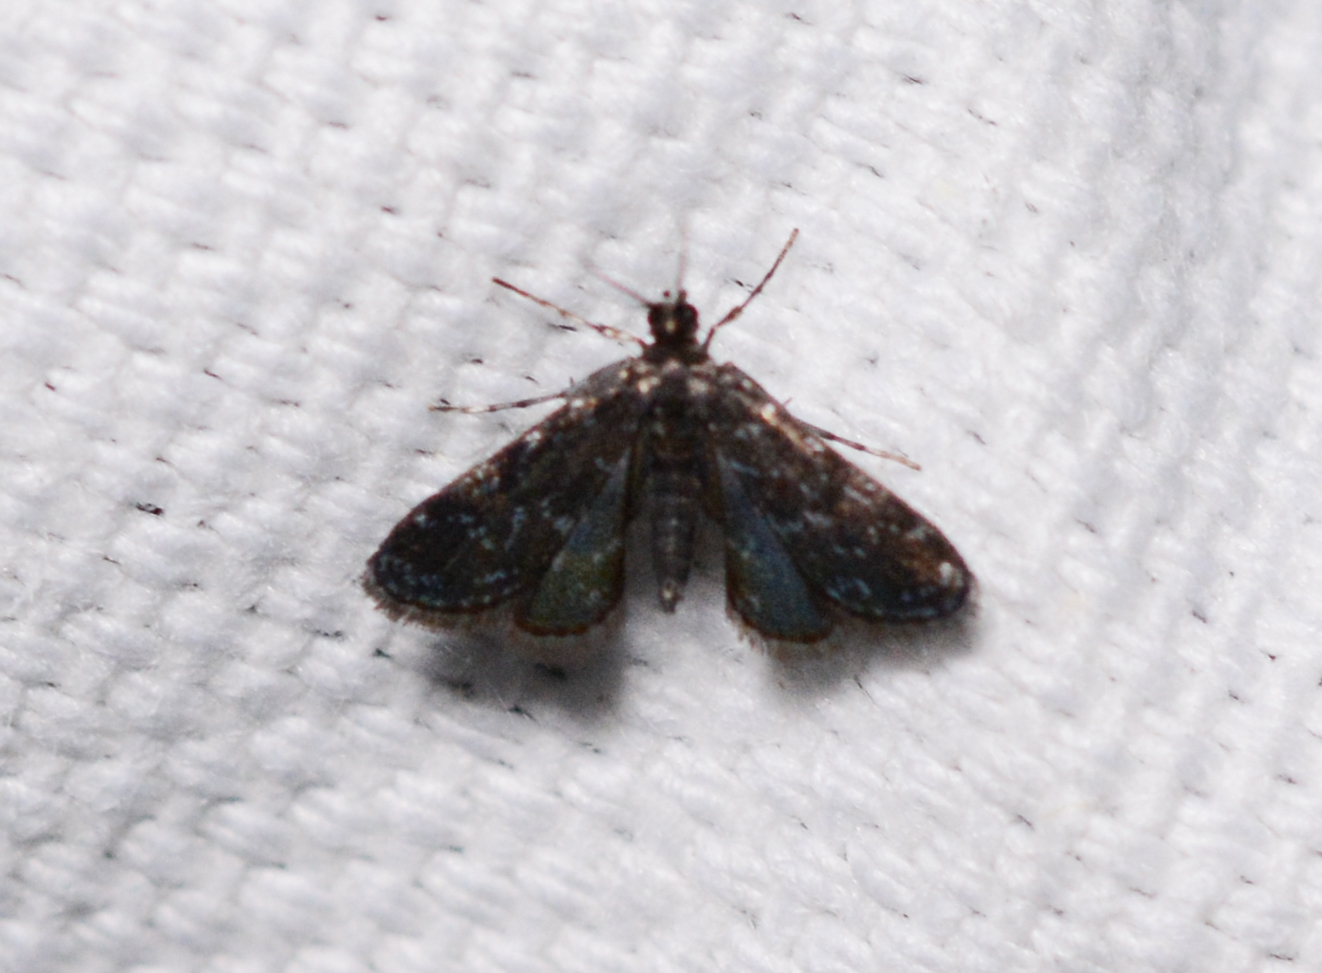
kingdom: Animalia
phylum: Arthropoda
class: Insecta
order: Lepidoptera
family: Crambidae
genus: Elophila
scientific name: Elophila tinealis
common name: Black duckweed moth
